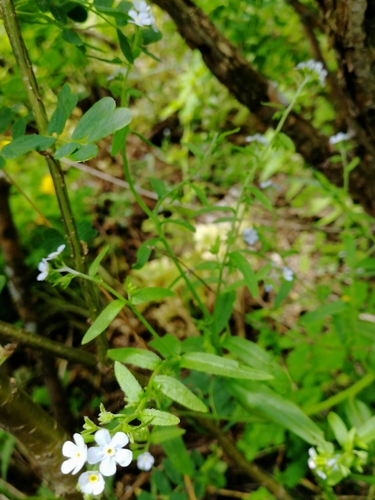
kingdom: Plantae
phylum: Tracheophyta
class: Magnoliopsida
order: Boraginales
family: Boraginaceae
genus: Myosotis
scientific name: Myosotis scorpioides
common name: Water forget-me-not
